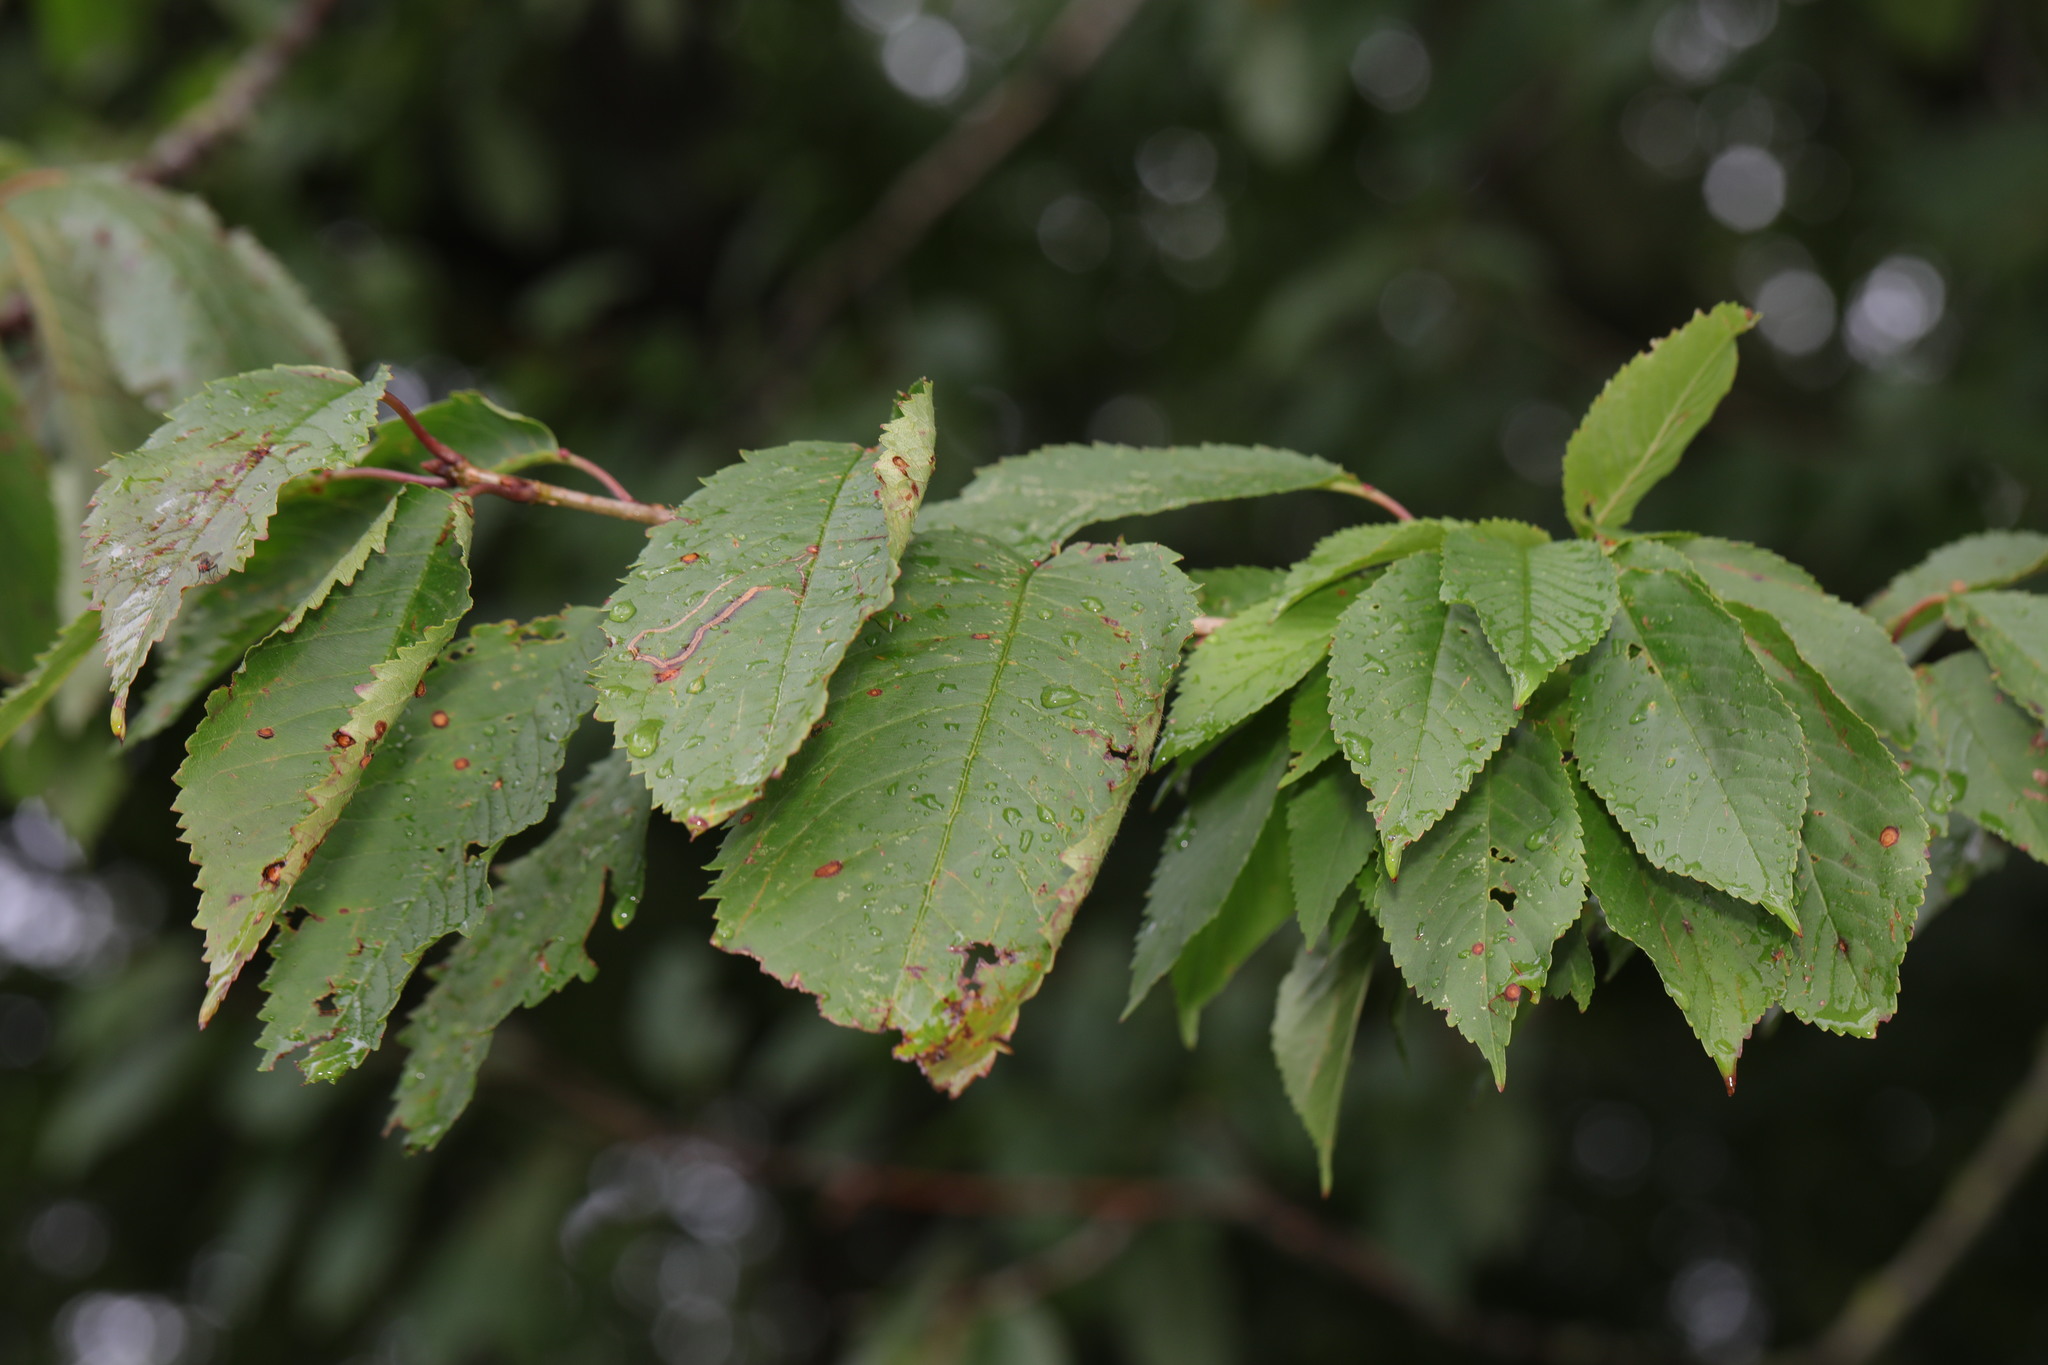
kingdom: Plantae
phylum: Tracheophyta
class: Magnoliopsida
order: Rosales
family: Rosaceae
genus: Prunus
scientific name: Prunus avium
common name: Sweet cherry
